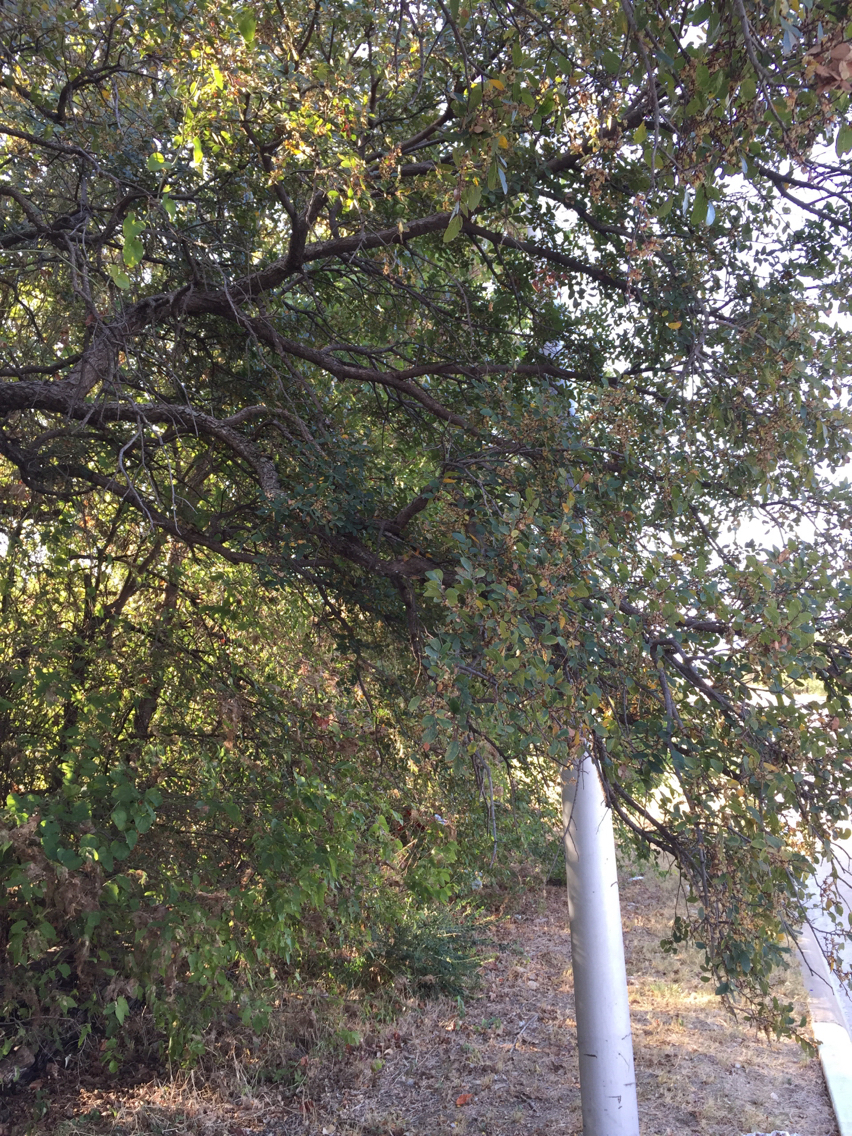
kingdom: Plantae
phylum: Tracheophyta
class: Magnoliopsida
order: Rosales
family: Ulmaceae
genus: Ulmus
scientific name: Ulmus crassifolia
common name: Basket elm
